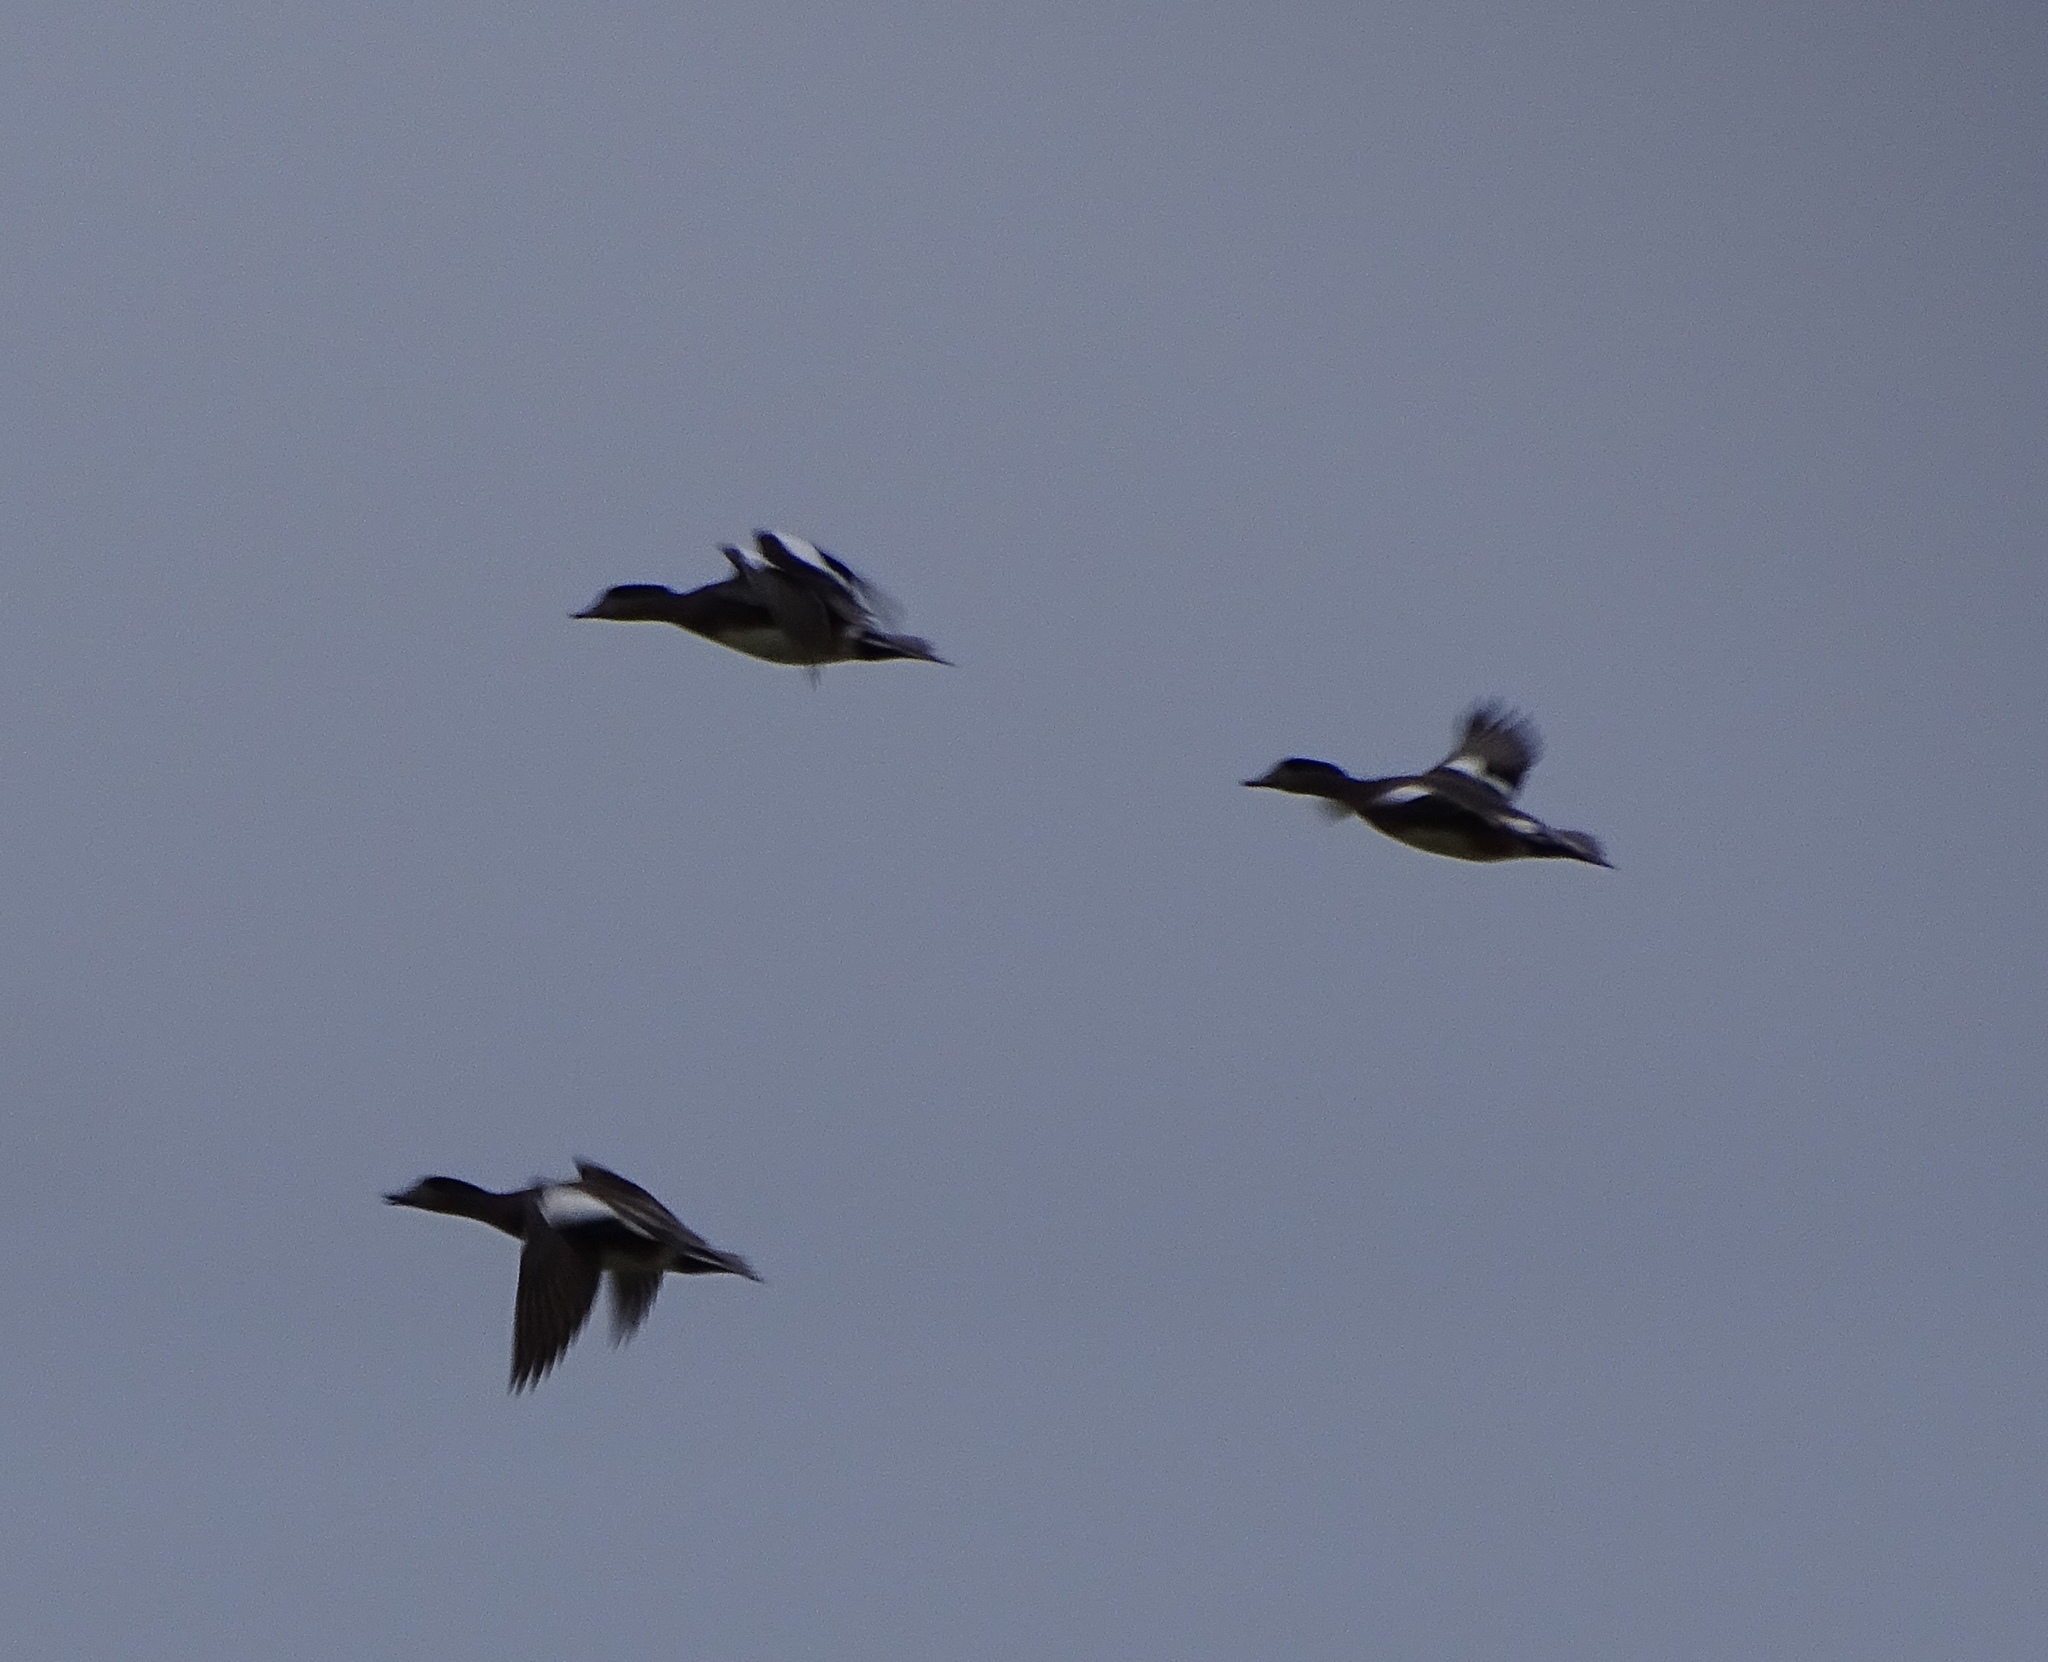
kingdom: Animalia
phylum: Chordata
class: Aves
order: Anseriformes
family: Anatidae
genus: Mareca
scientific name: Mareca americana
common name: American wigeon
